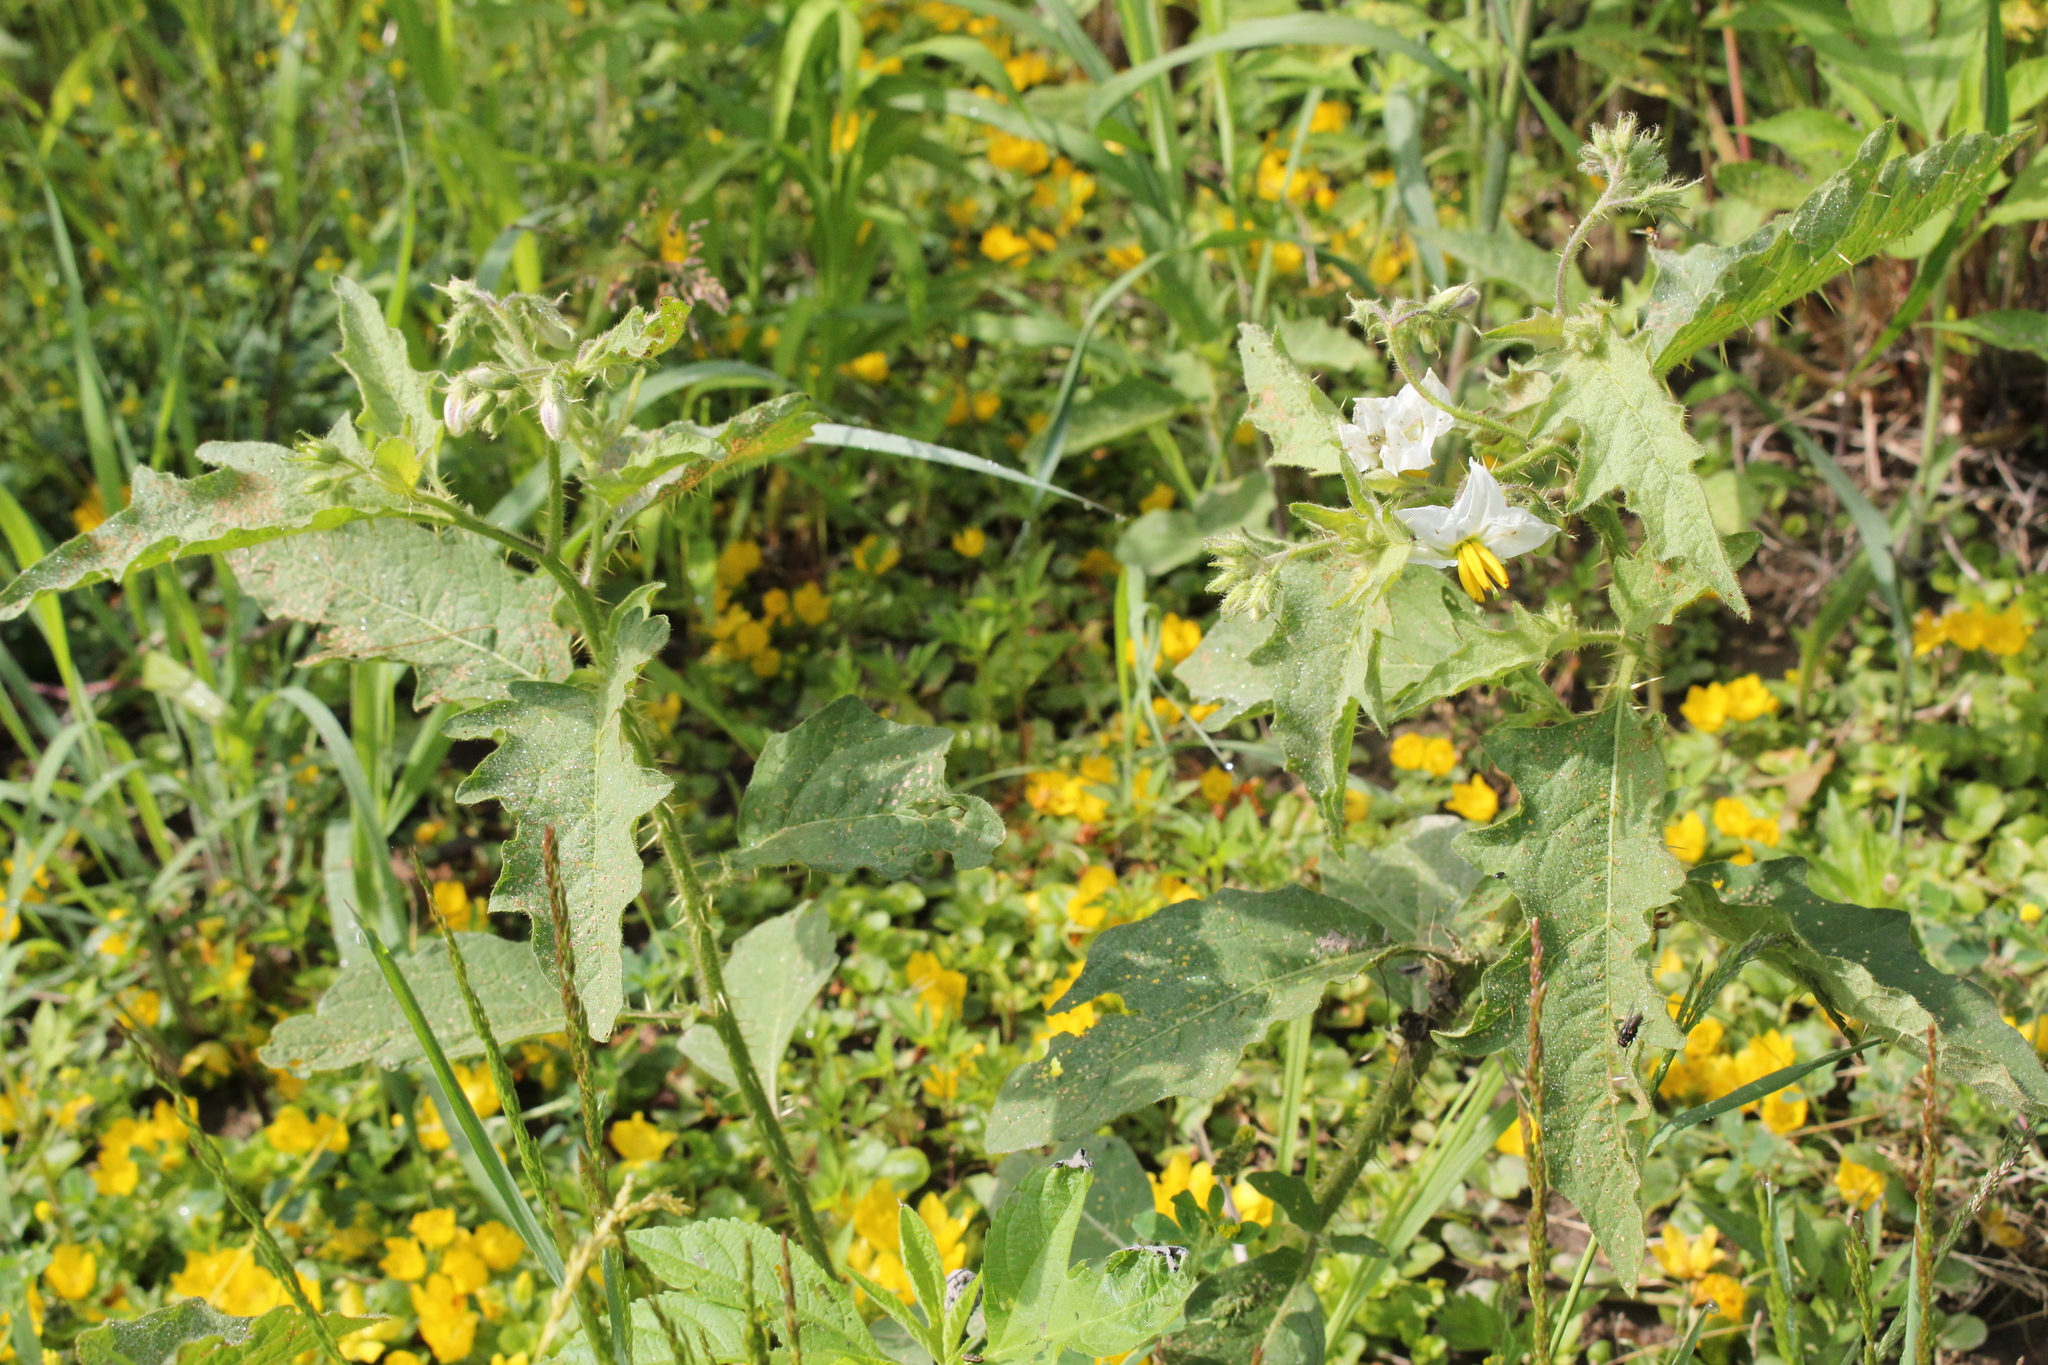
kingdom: Plantae
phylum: Tracheophyta
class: Magnoliopsida
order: Solanales
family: Solanaceae
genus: Solanum
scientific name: Solanum carolinense
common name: Horse-nettle
